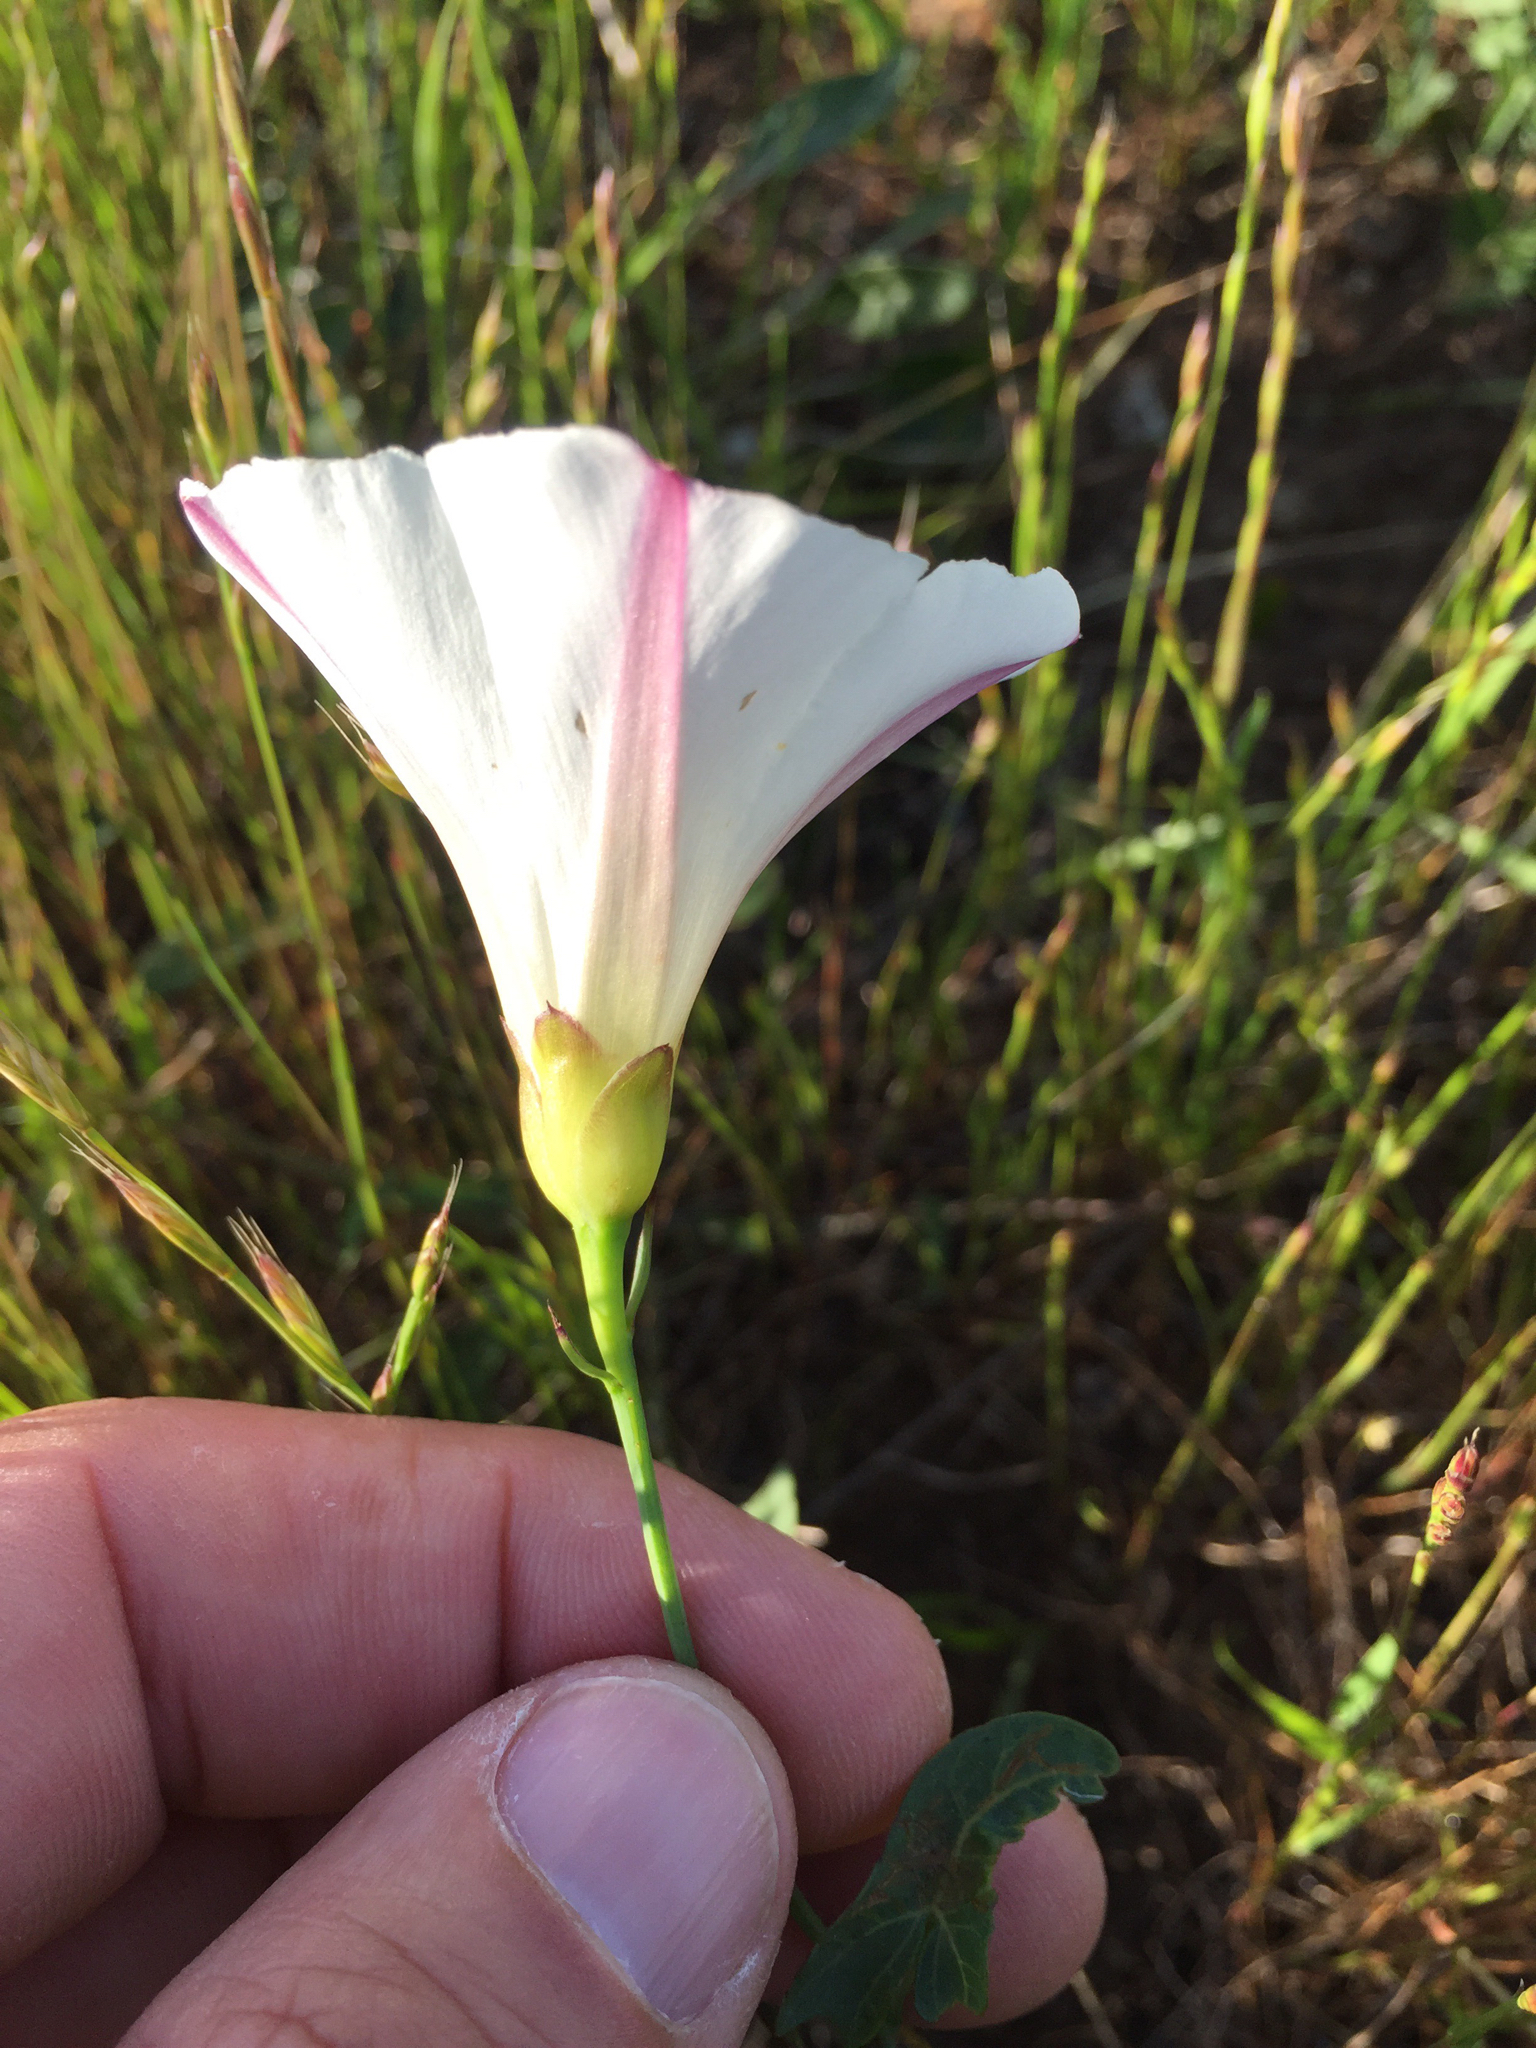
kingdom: Plantae
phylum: Tracheophyta
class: Magnoliopsida
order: Solanales
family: Convolvulaceae
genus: Calystegia
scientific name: Calystegia purpurata
